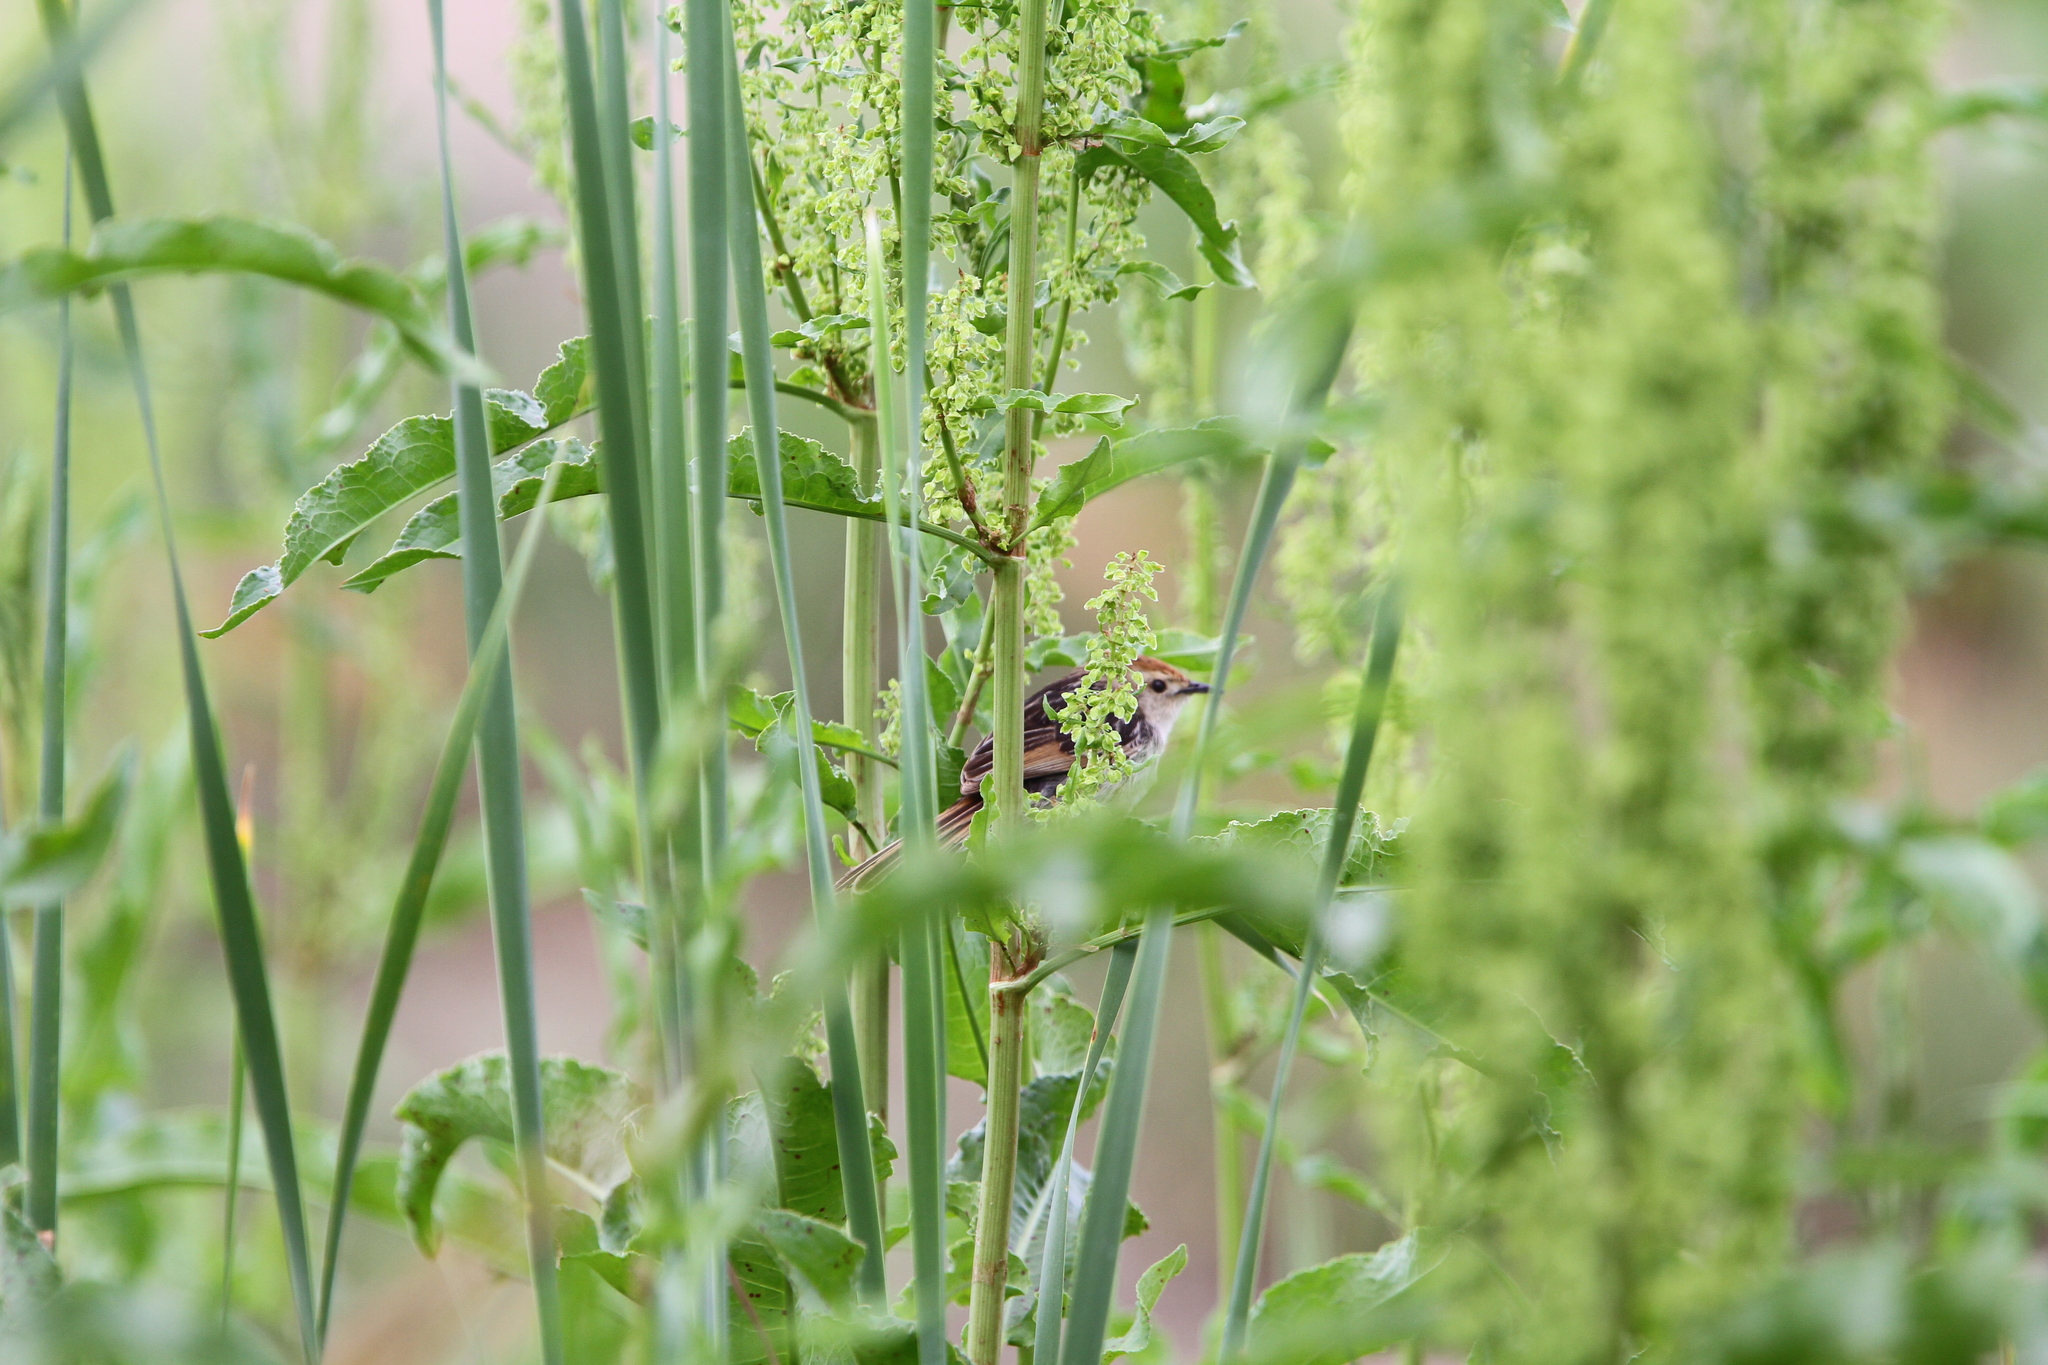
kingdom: Animalia
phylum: Chordata
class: Aves
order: Passeriformes
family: Cisticolidae
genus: Cisticola
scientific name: Cisticola tinniens
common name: Levaillant's cisticola
